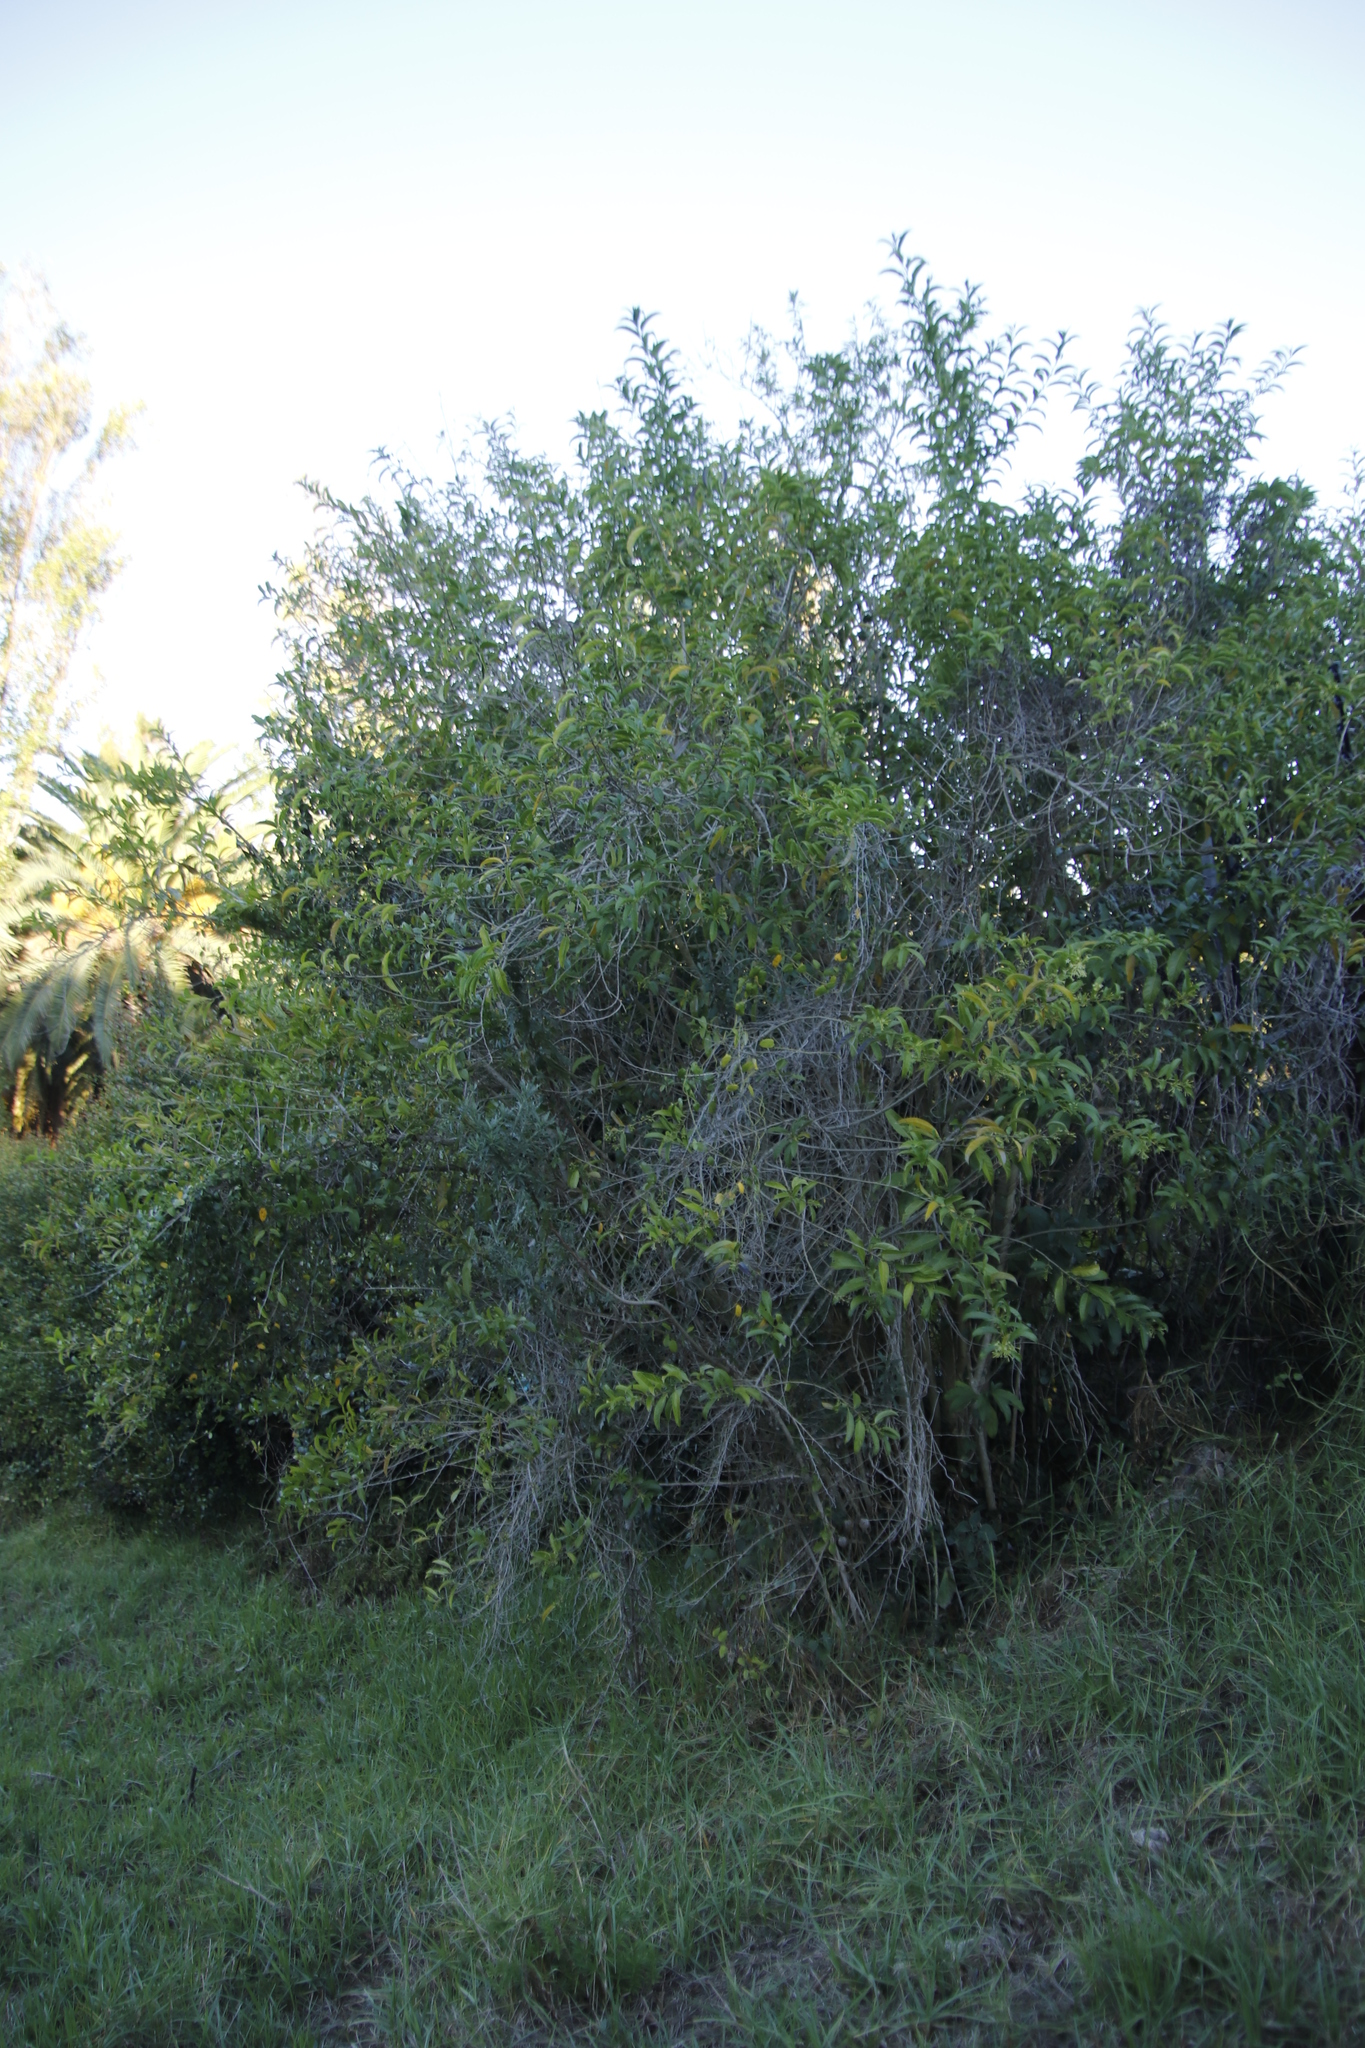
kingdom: Plantae
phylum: Tracheophyta
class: Magnoliopsida
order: Solanales
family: Solanaceae
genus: Cestrum
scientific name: Cestrum laevigatum
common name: Inkberry
